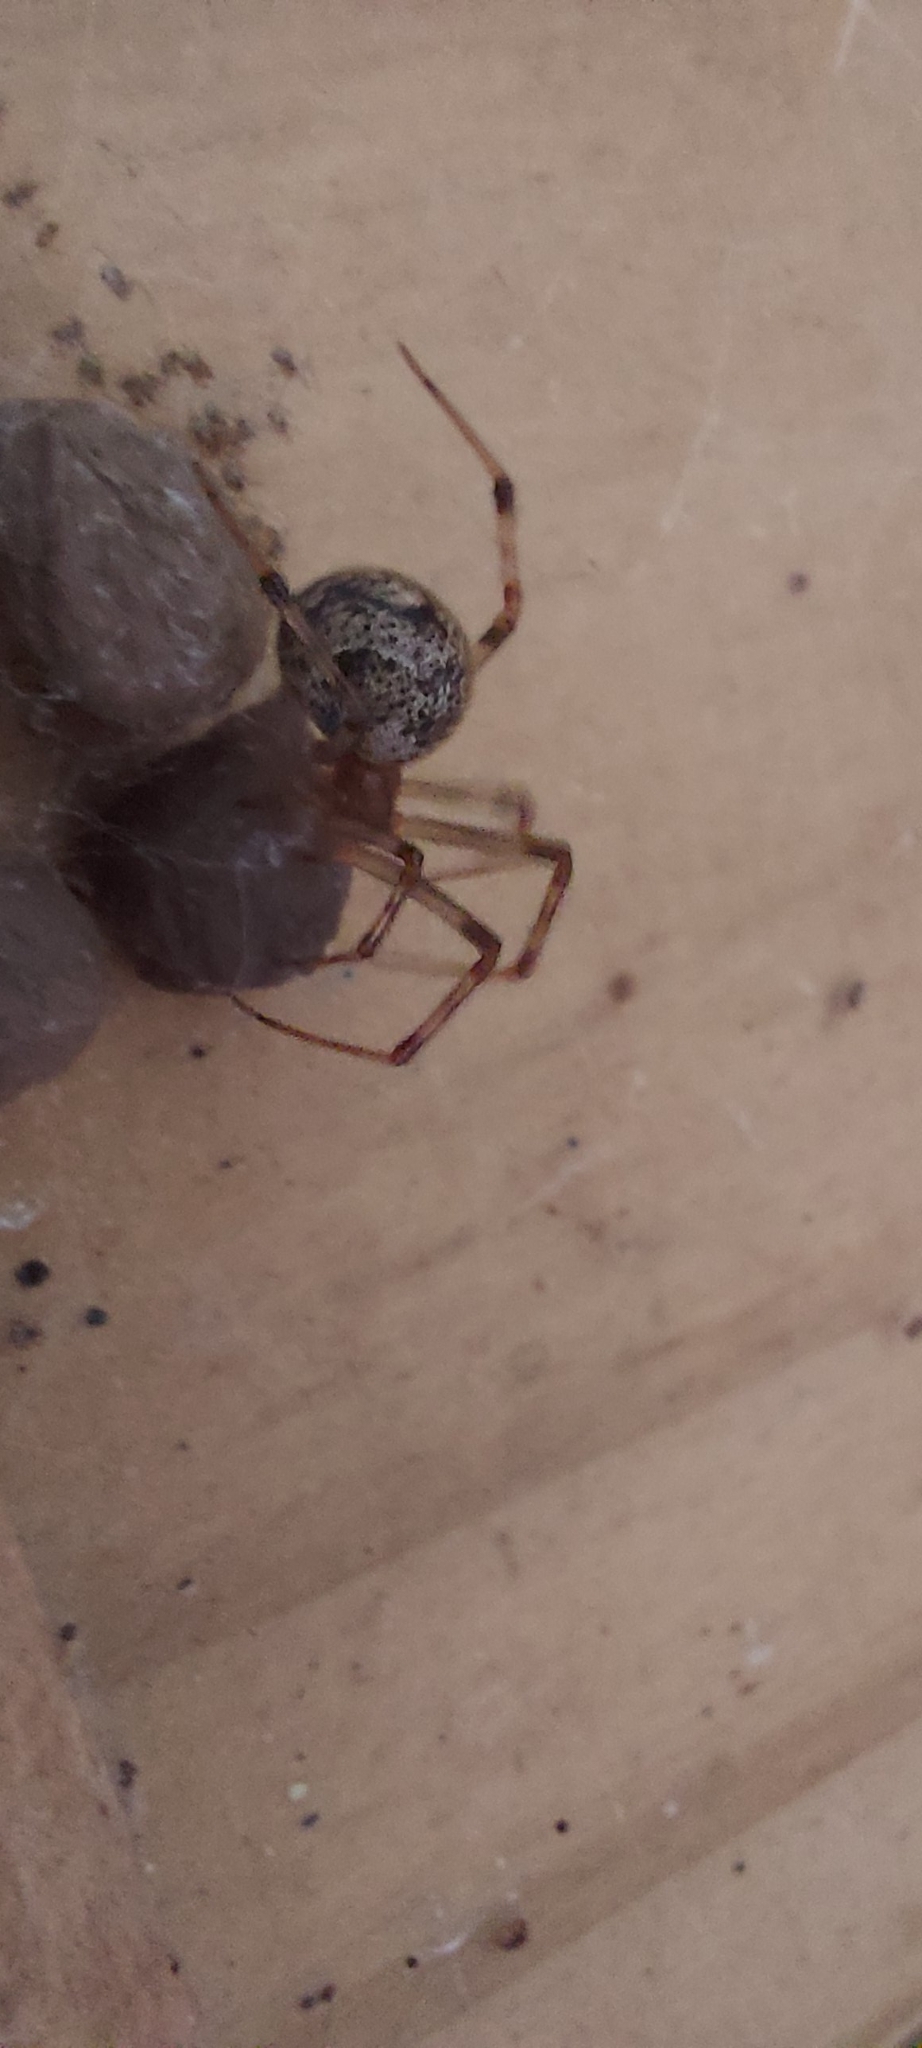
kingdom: Animalia
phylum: Arthropoda
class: Arachnida
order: Araneae
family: Theridiidae
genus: Parasteatoda
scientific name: Parasteatoda tepidariorum
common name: Common house spider
